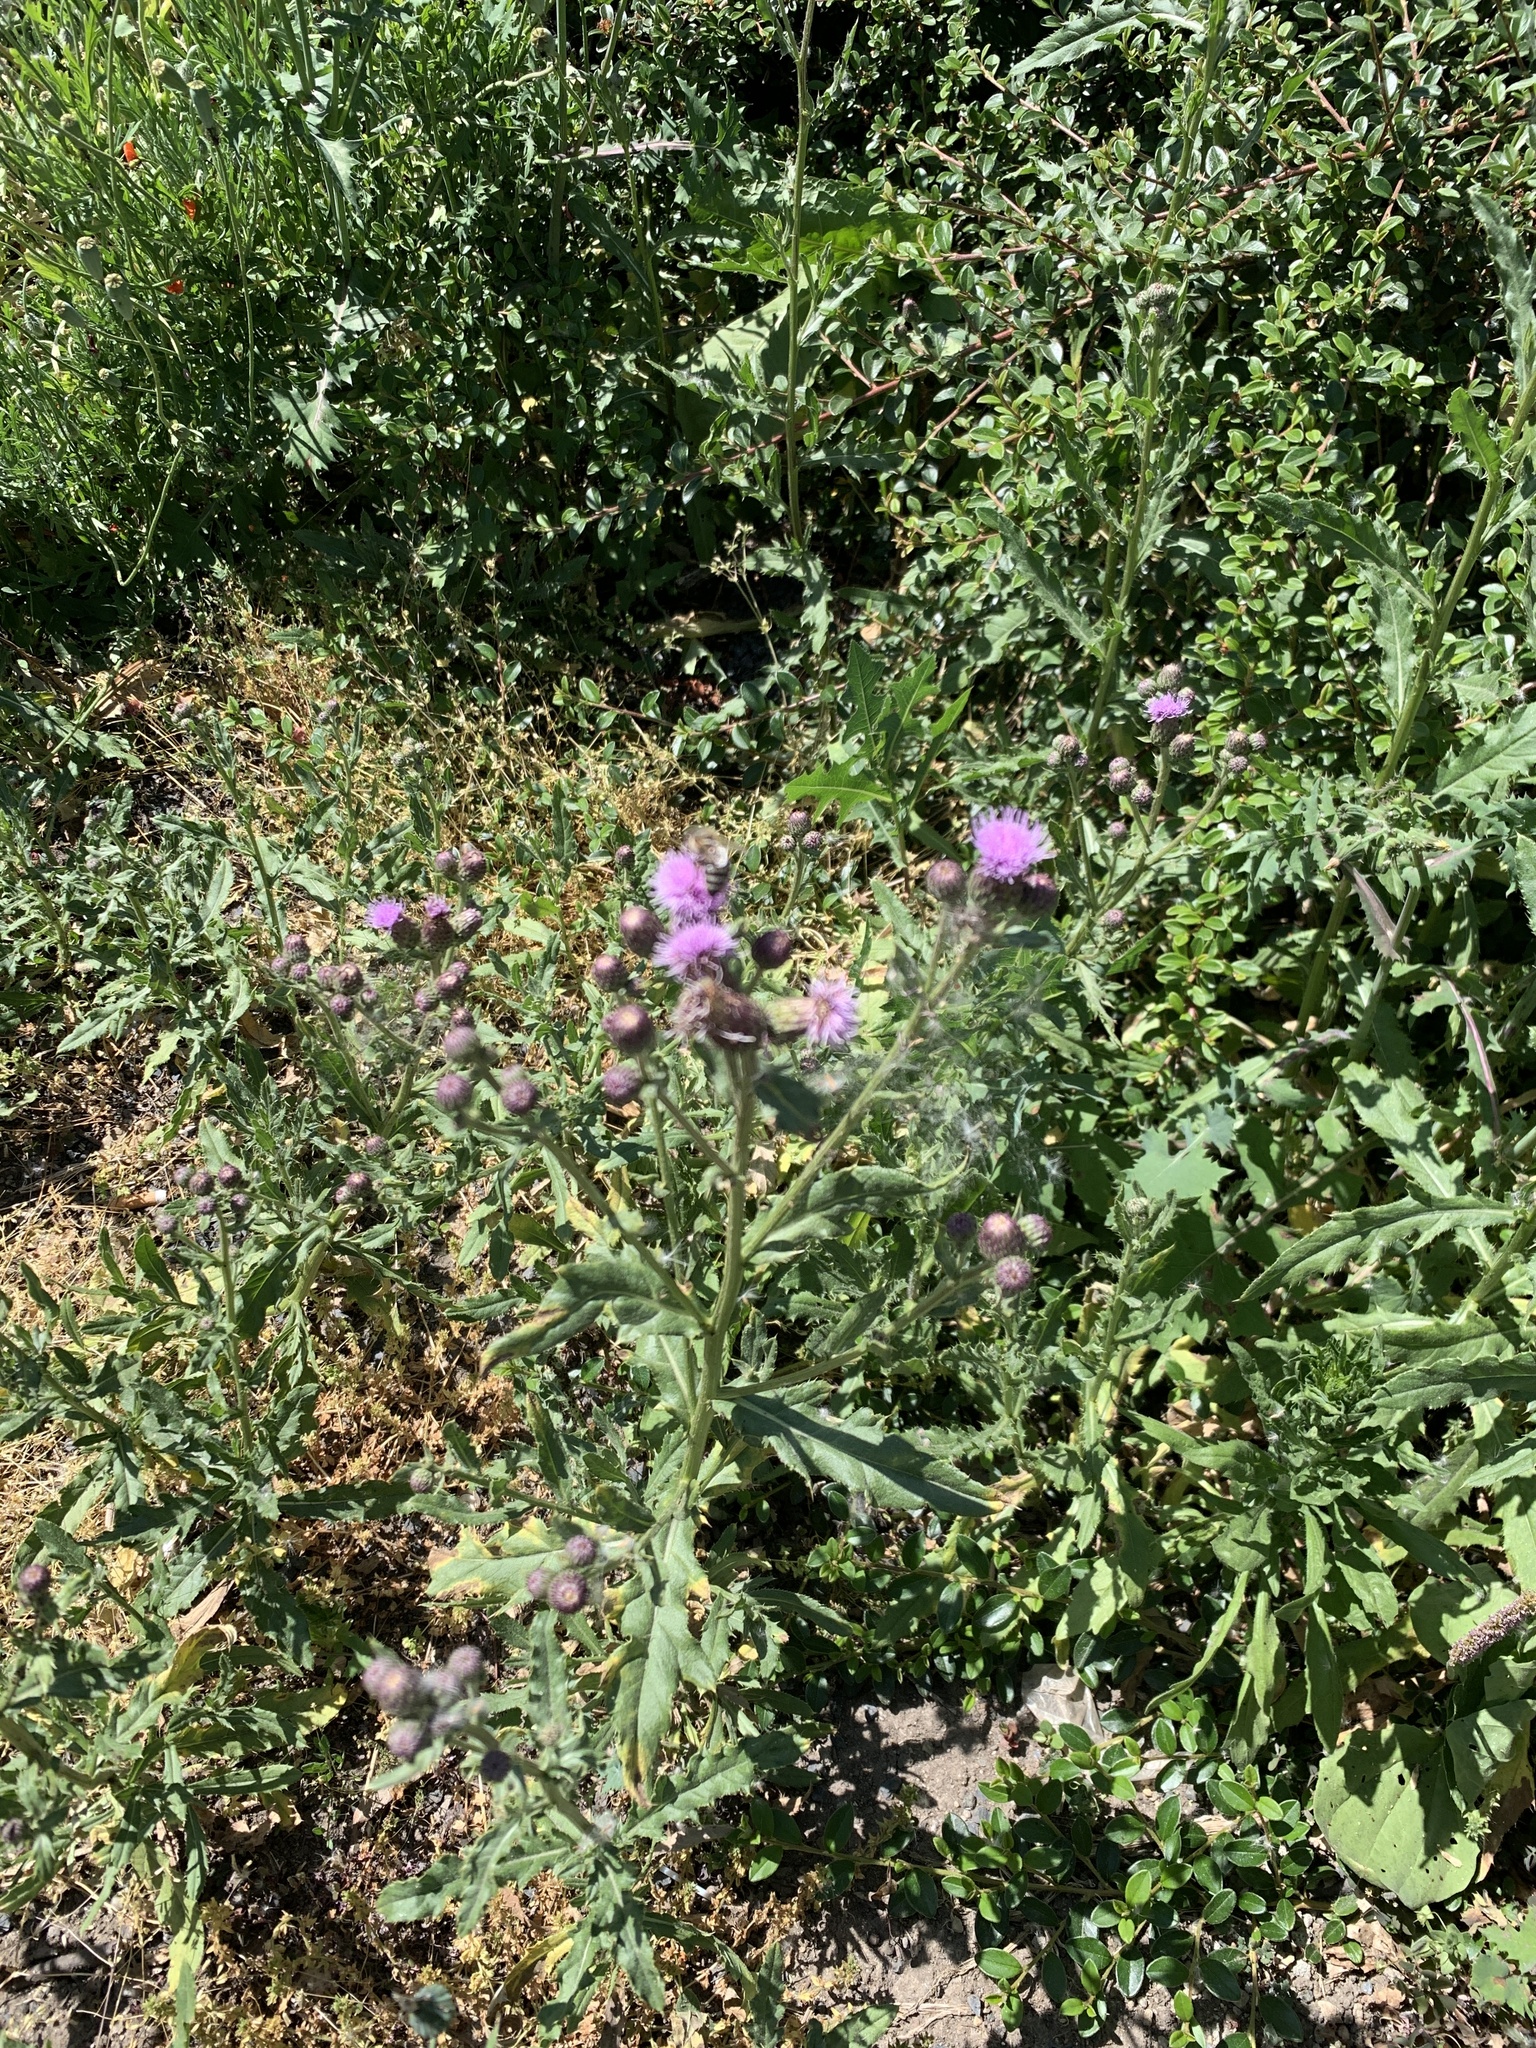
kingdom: Plantae
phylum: Tracheophyta
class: Magnoliopsida
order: Asterales
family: Asteraceae
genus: Cirsium
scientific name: Cirsium arvense
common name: Creeping thistle
